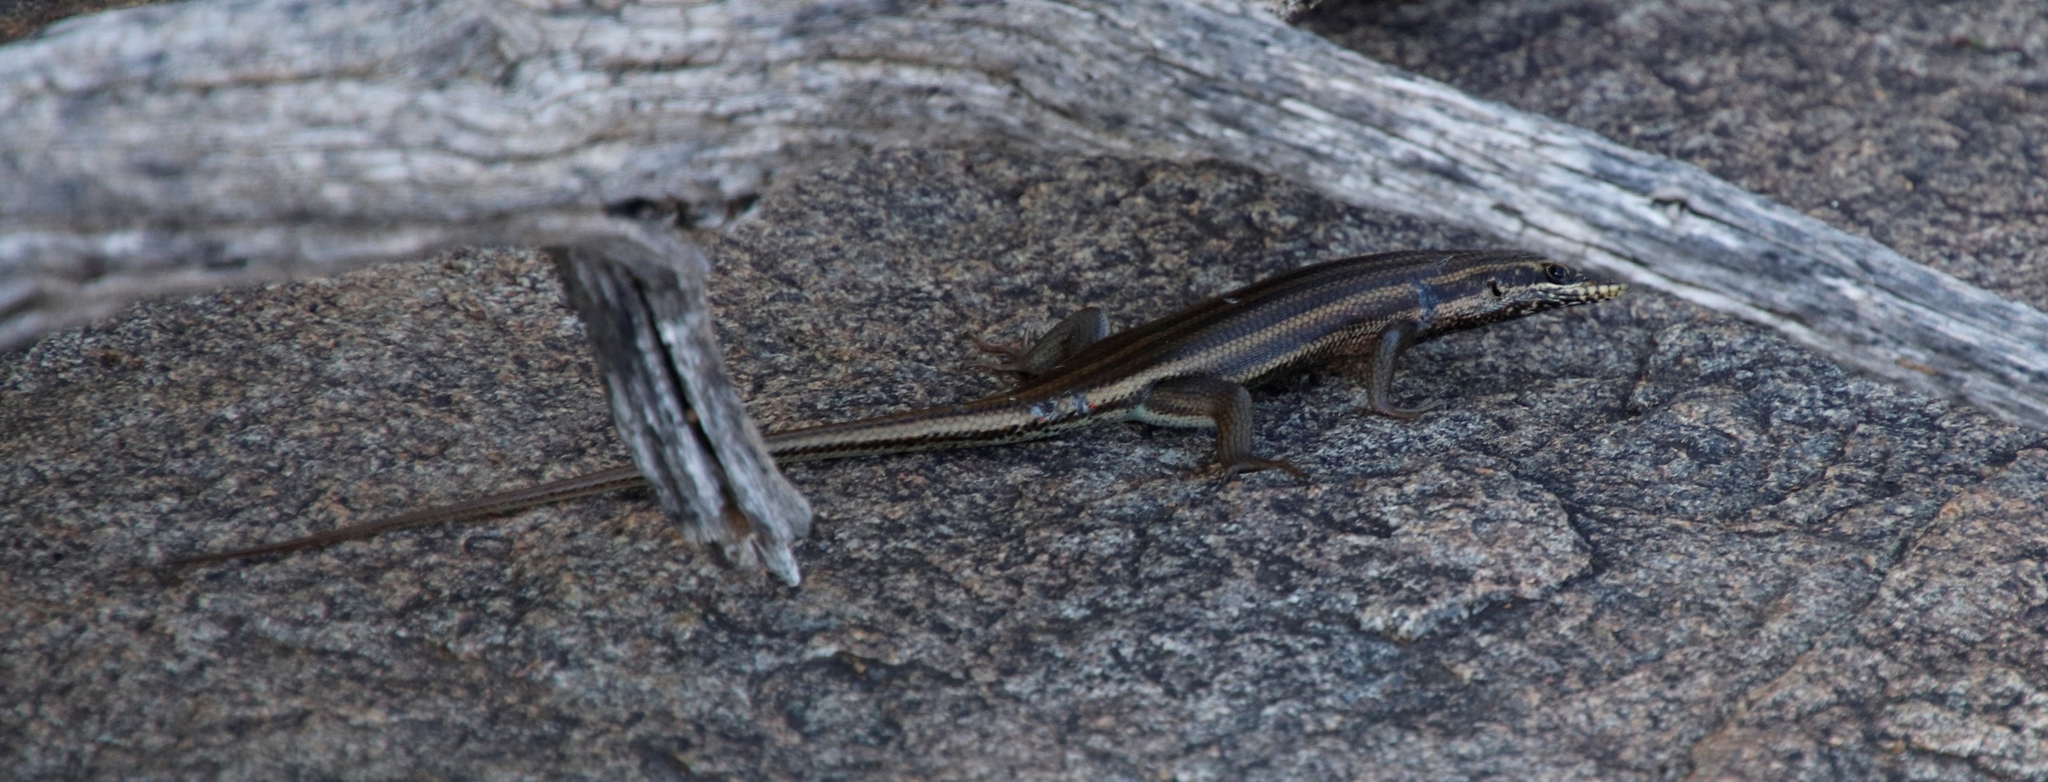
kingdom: Animalia
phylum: Chordata
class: Squamata
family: Scincidae
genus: Trachylepis
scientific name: Trachylepis sulcata
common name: Western rock skink
